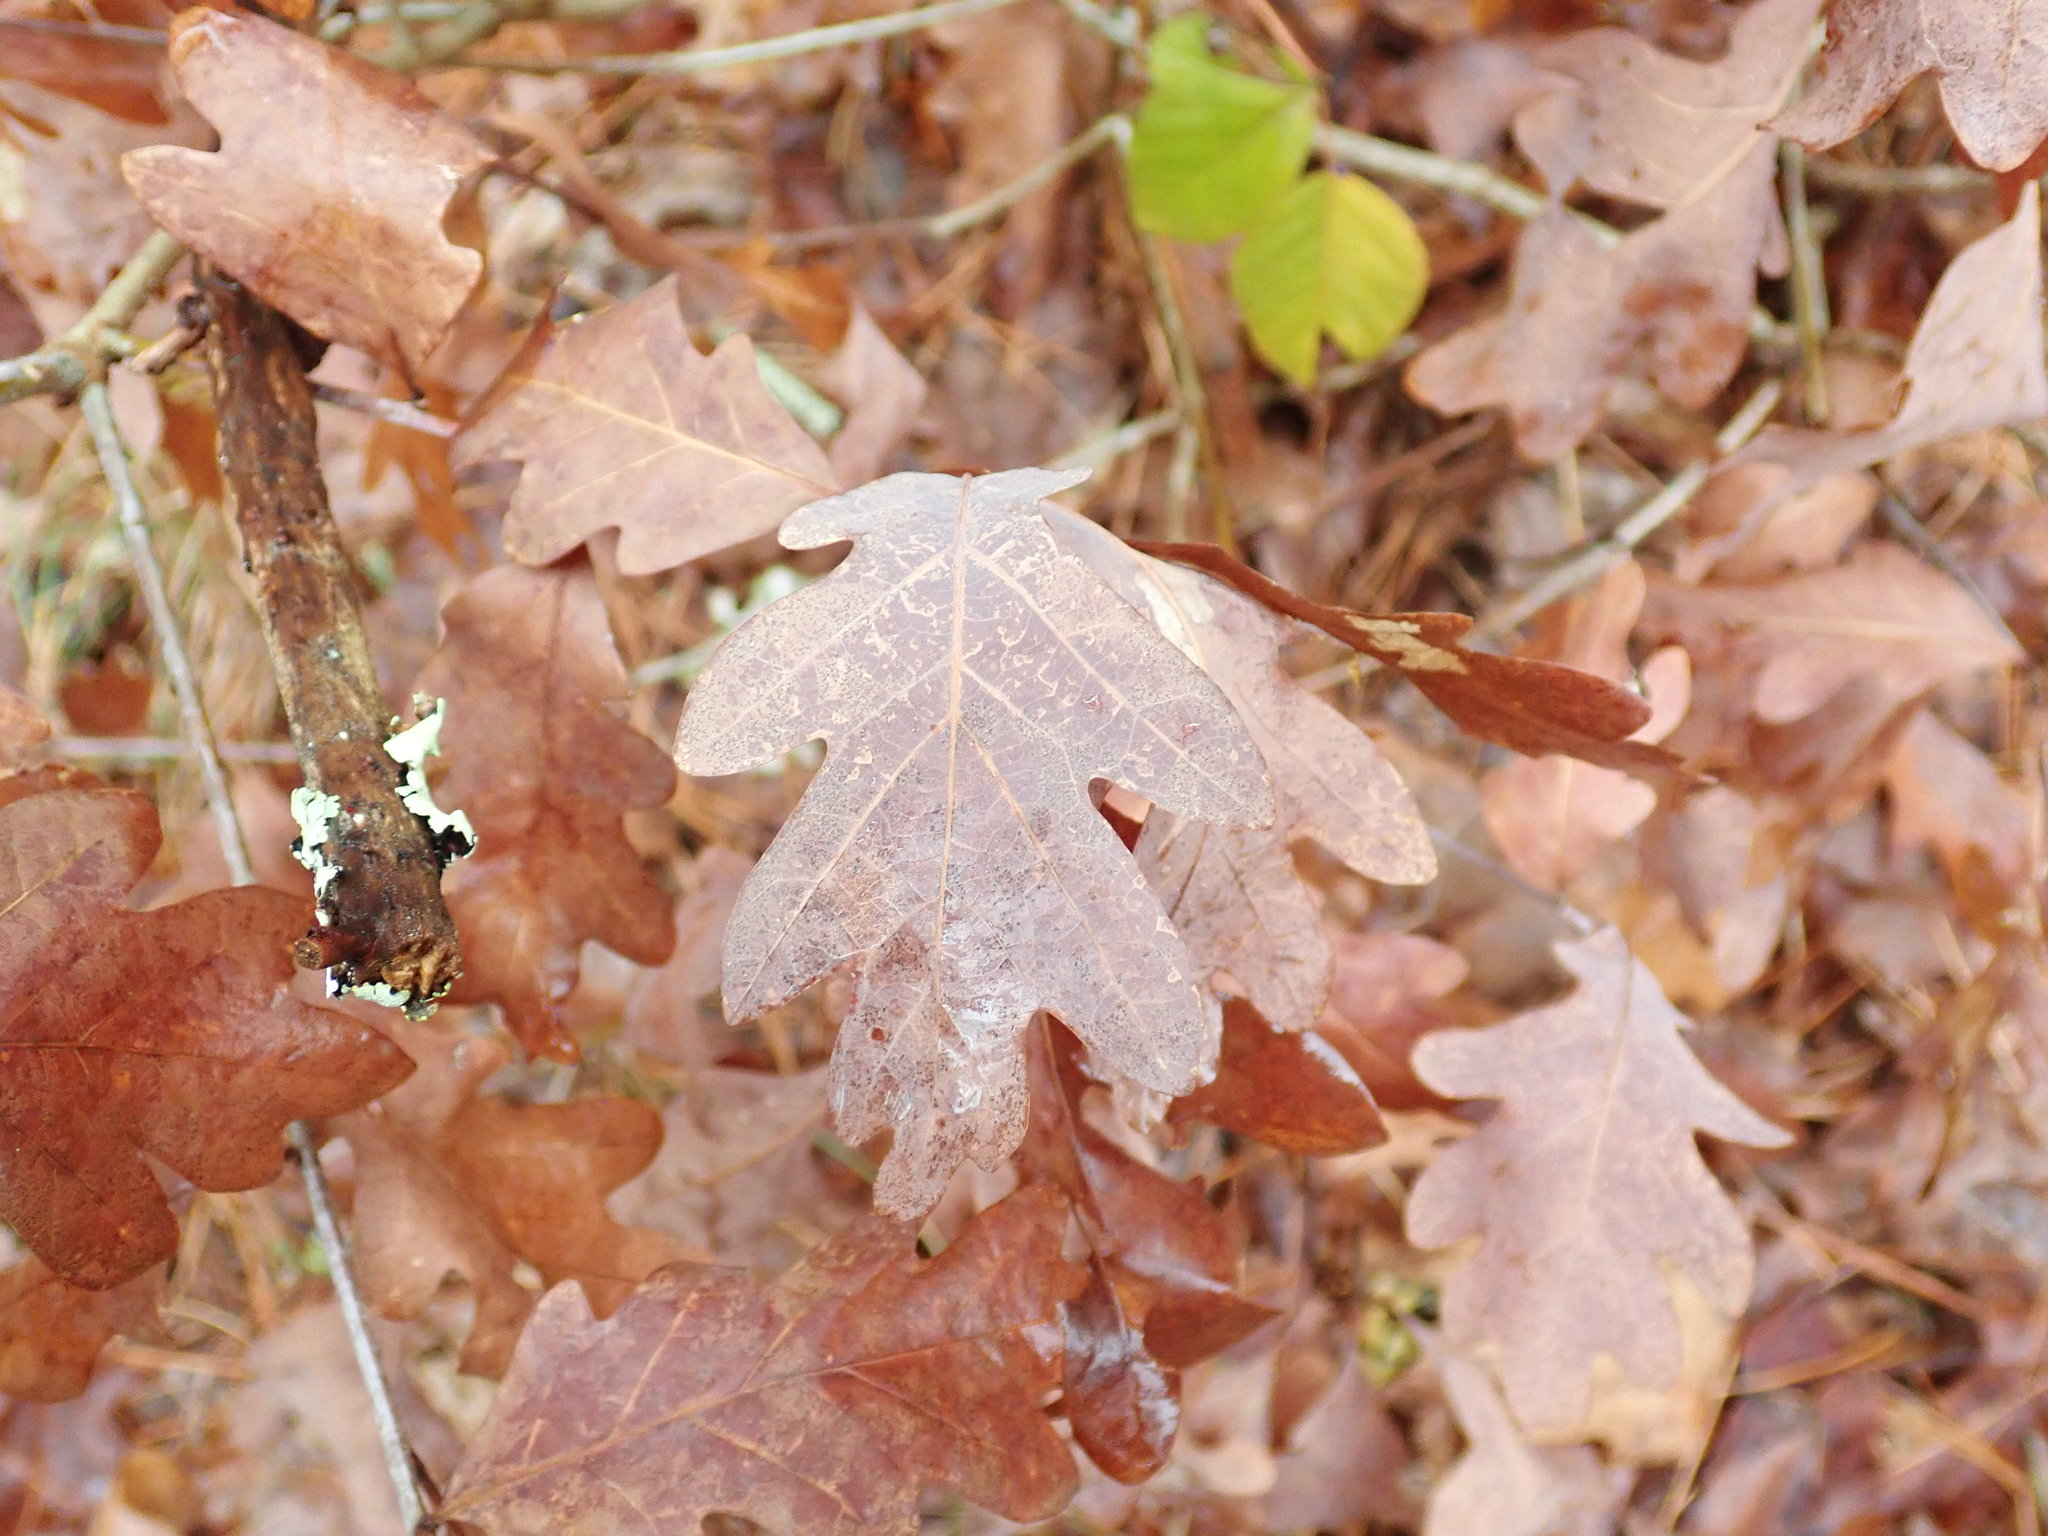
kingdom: Plantae
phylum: Tracheophyta
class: Magnoliopsida
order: Fagales
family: Fagaceae
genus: Quercus
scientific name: Quercus alba
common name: White oak
